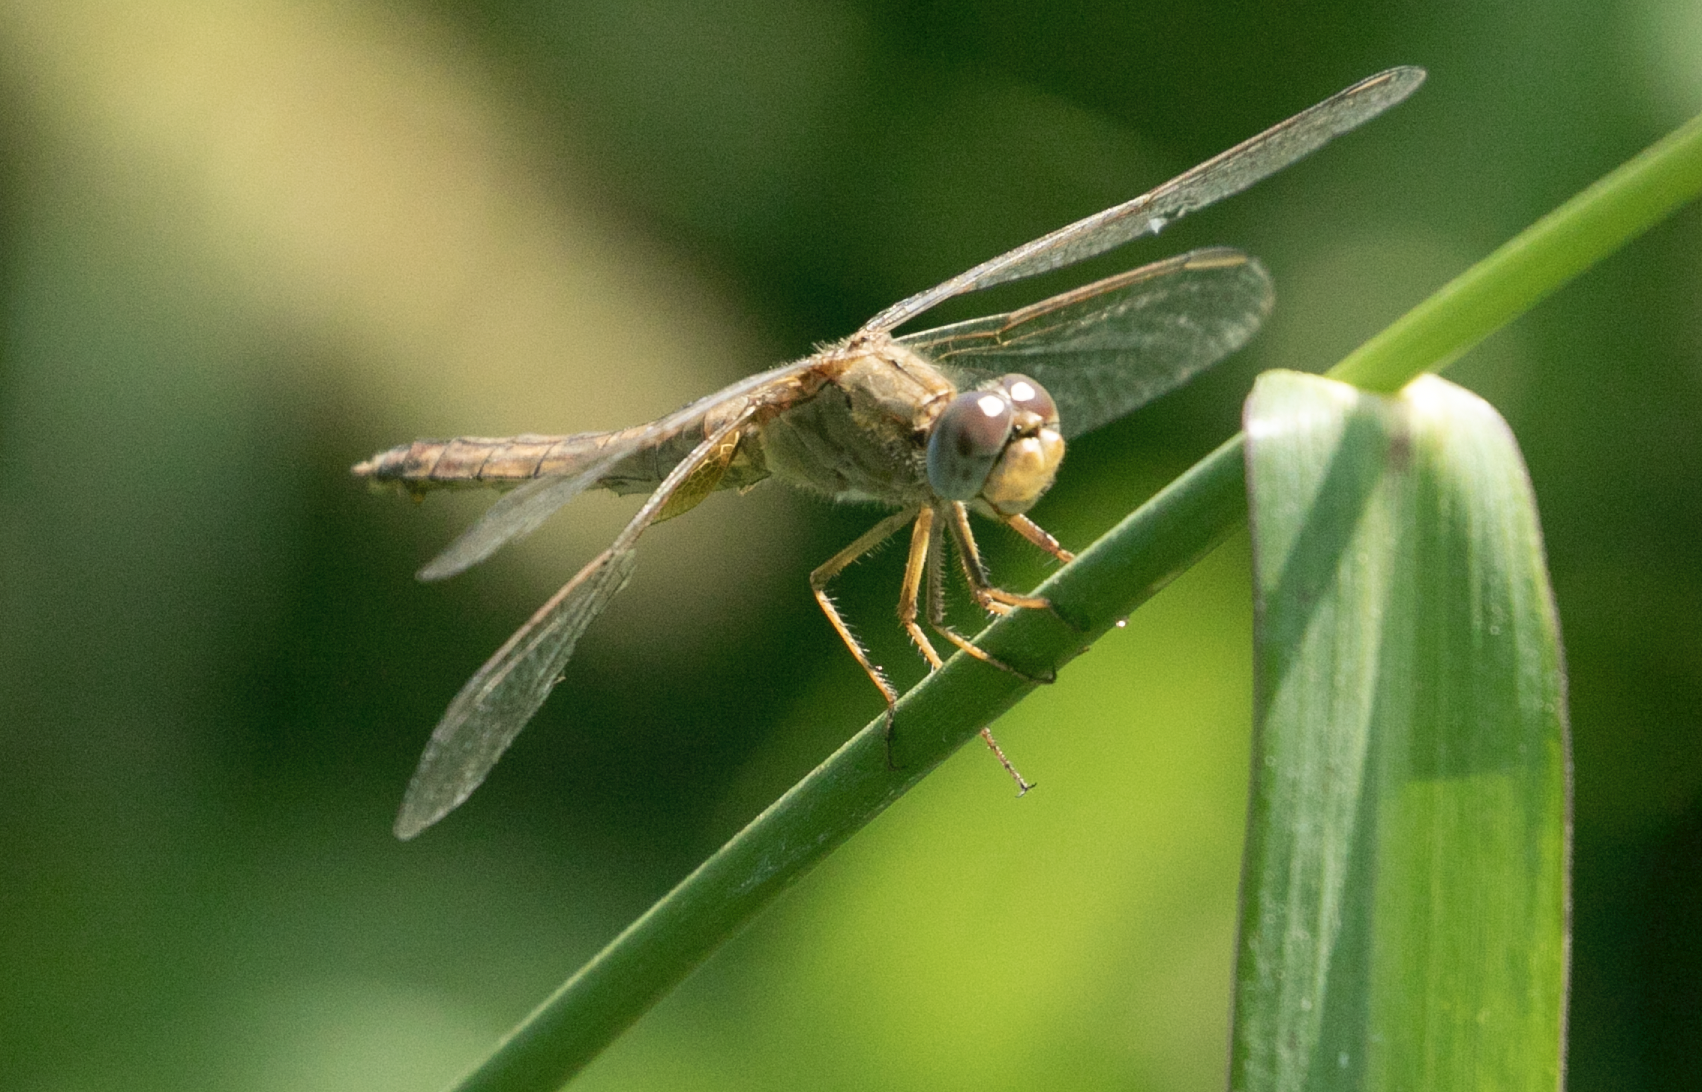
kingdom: Animalia
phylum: Arthropoda
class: Insecta
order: Odonata
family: Libellulidae
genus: Crocothemis
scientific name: Crocothemis erythraea
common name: Scarlet dragonfly
